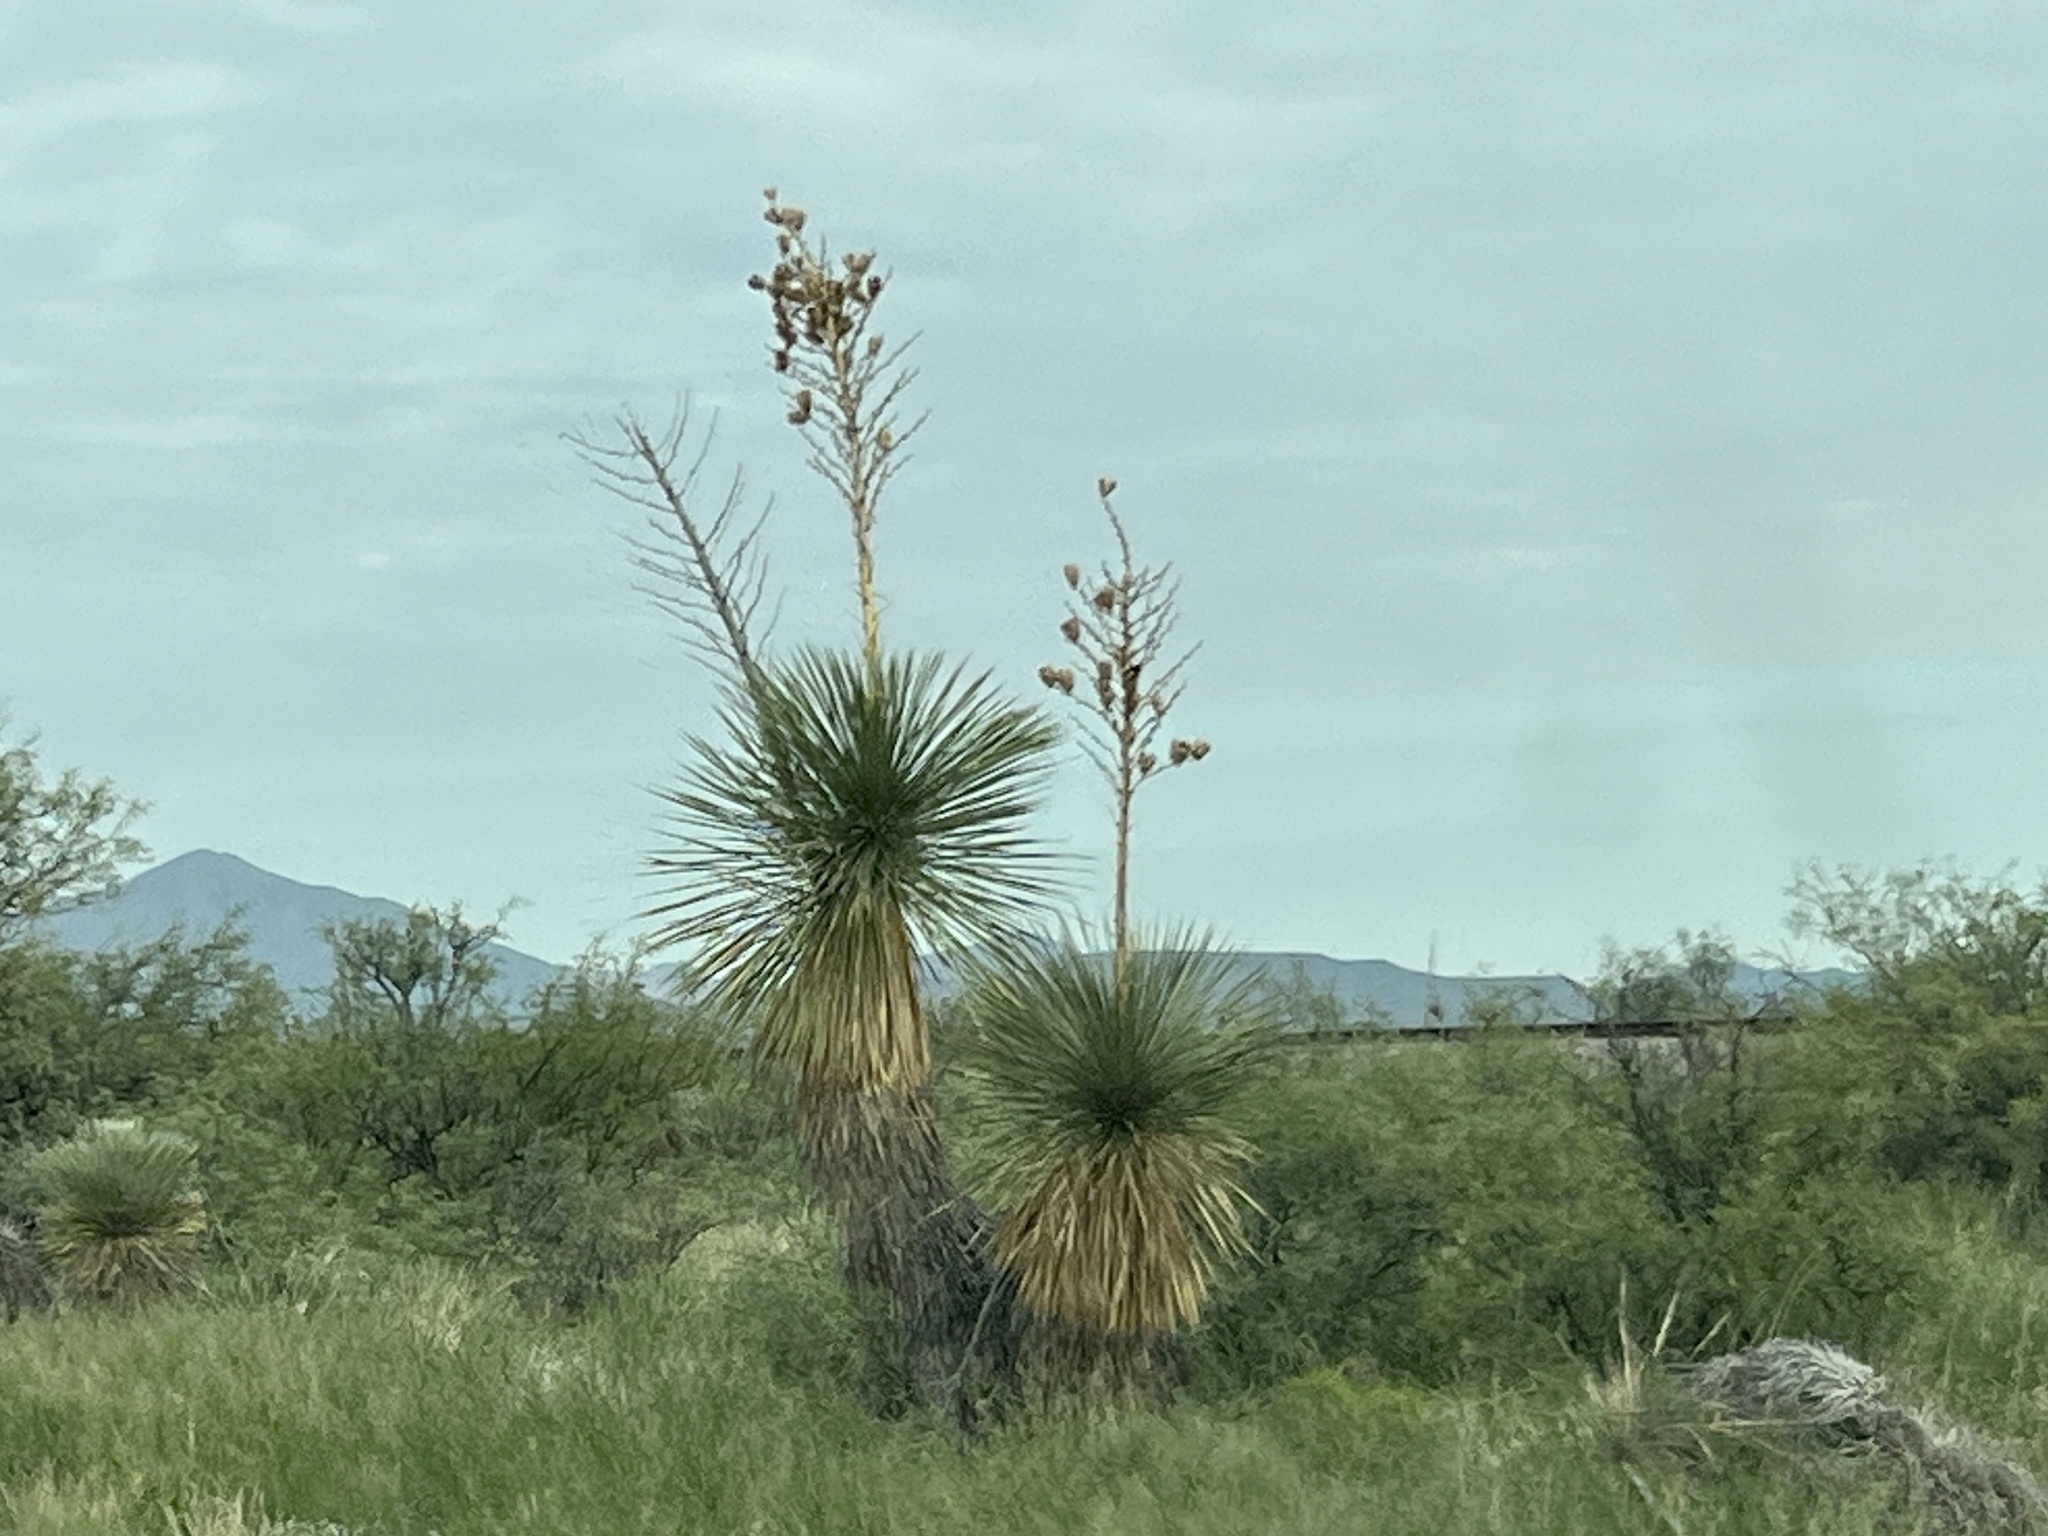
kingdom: Plantae
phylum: Tracheophyta
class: Liliopsida
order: Asparagales
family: Asparagaceae
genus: Yucca
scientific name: Yucca elata
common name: Palmella
